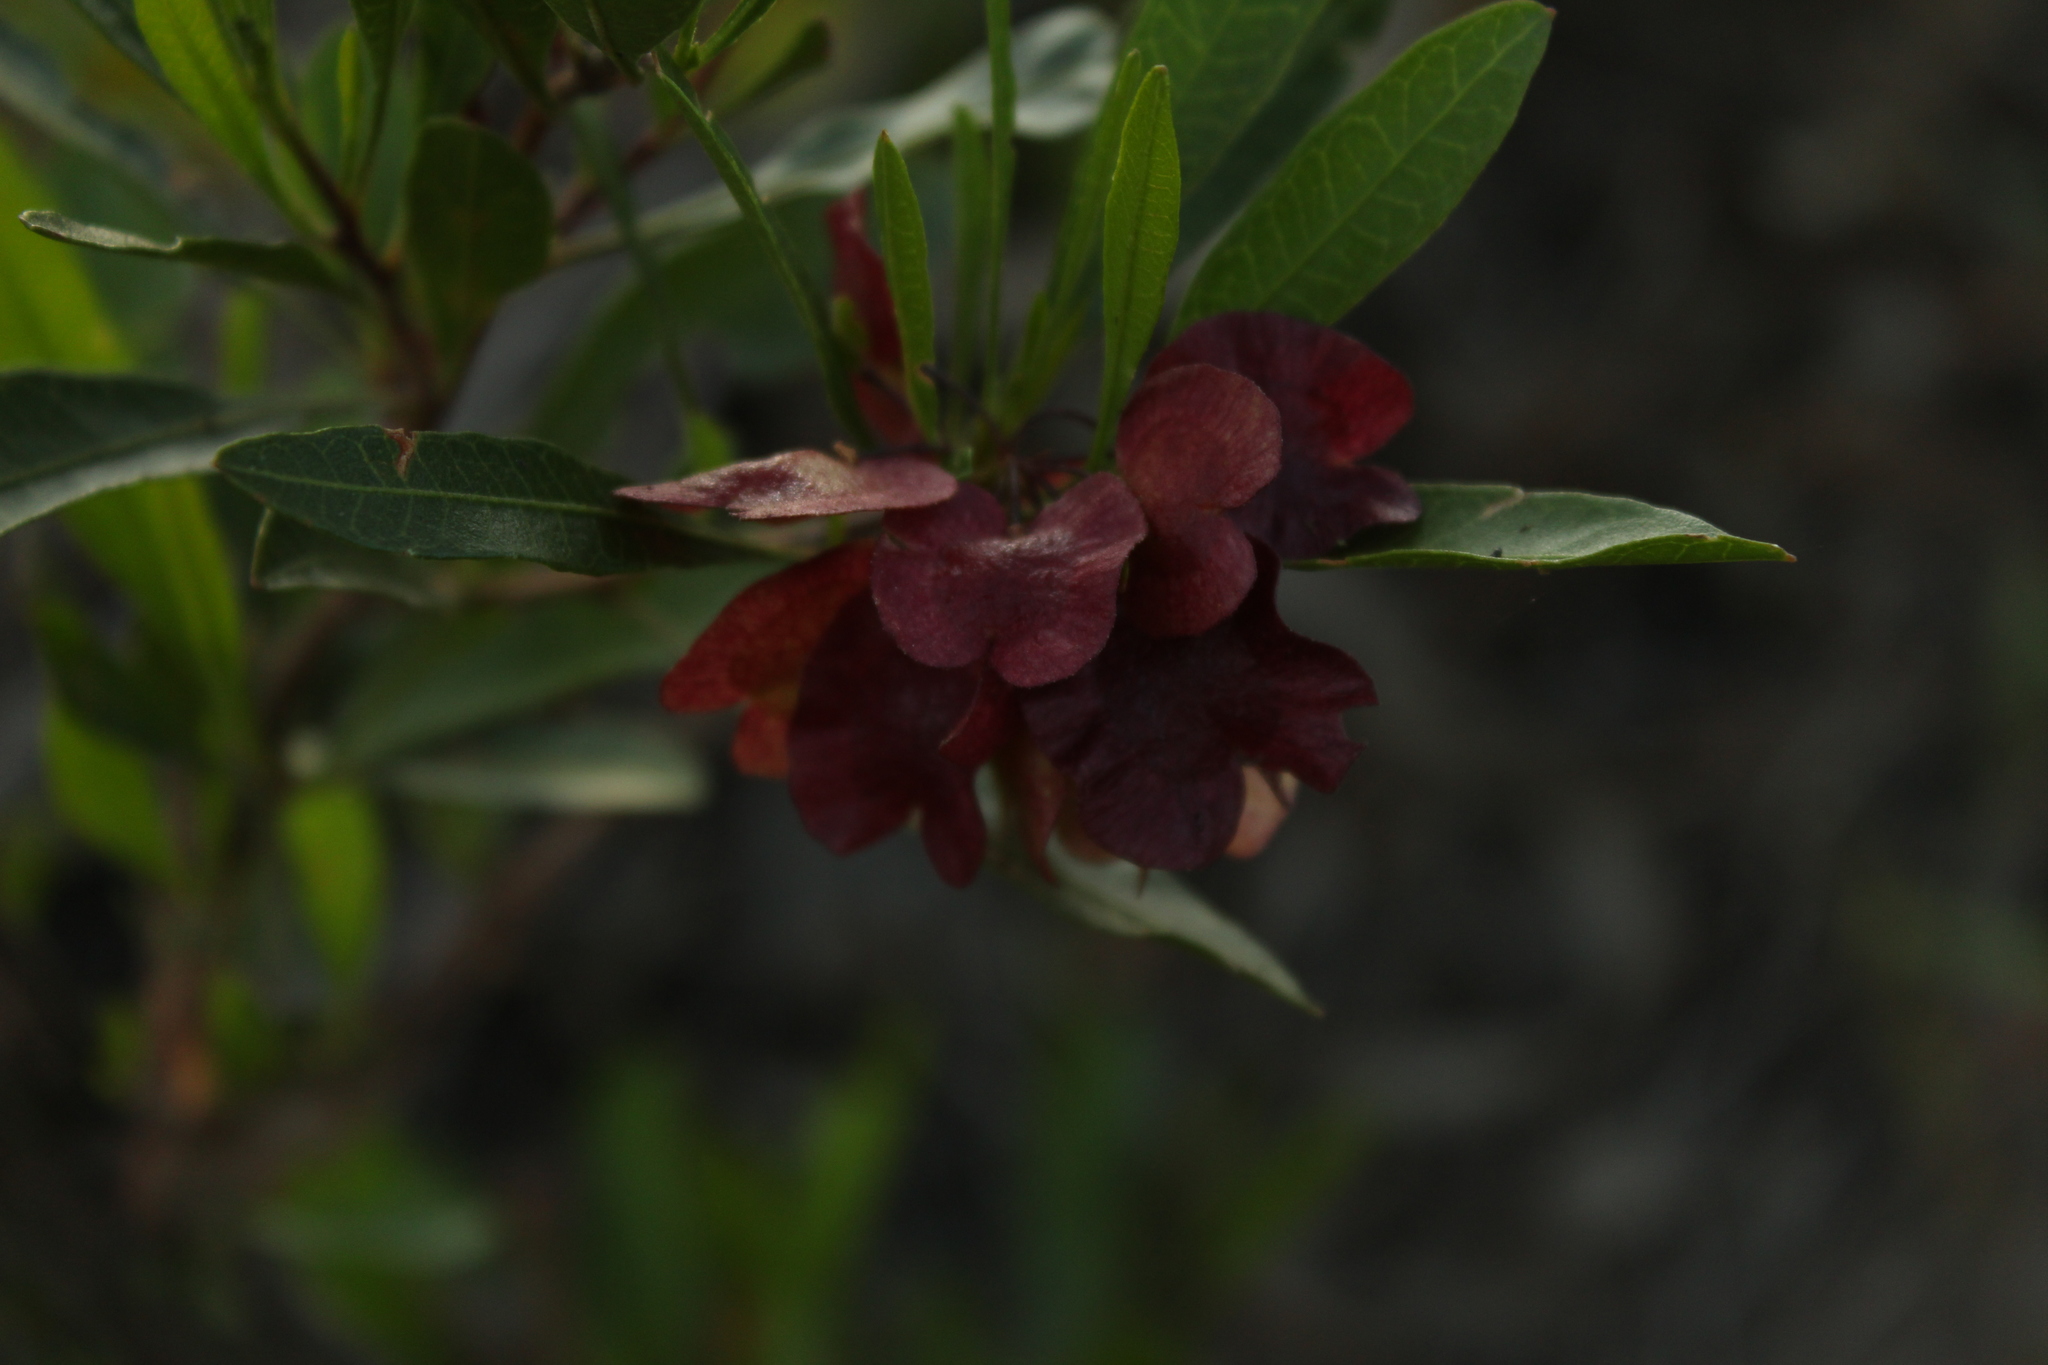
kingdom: Plantae
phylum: Tracheophyta
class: Magnoliopsida
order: Sapindales
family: Sapindaceae
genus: Dodonaea
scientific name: Dodonaea viscosa
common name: Hopbush
